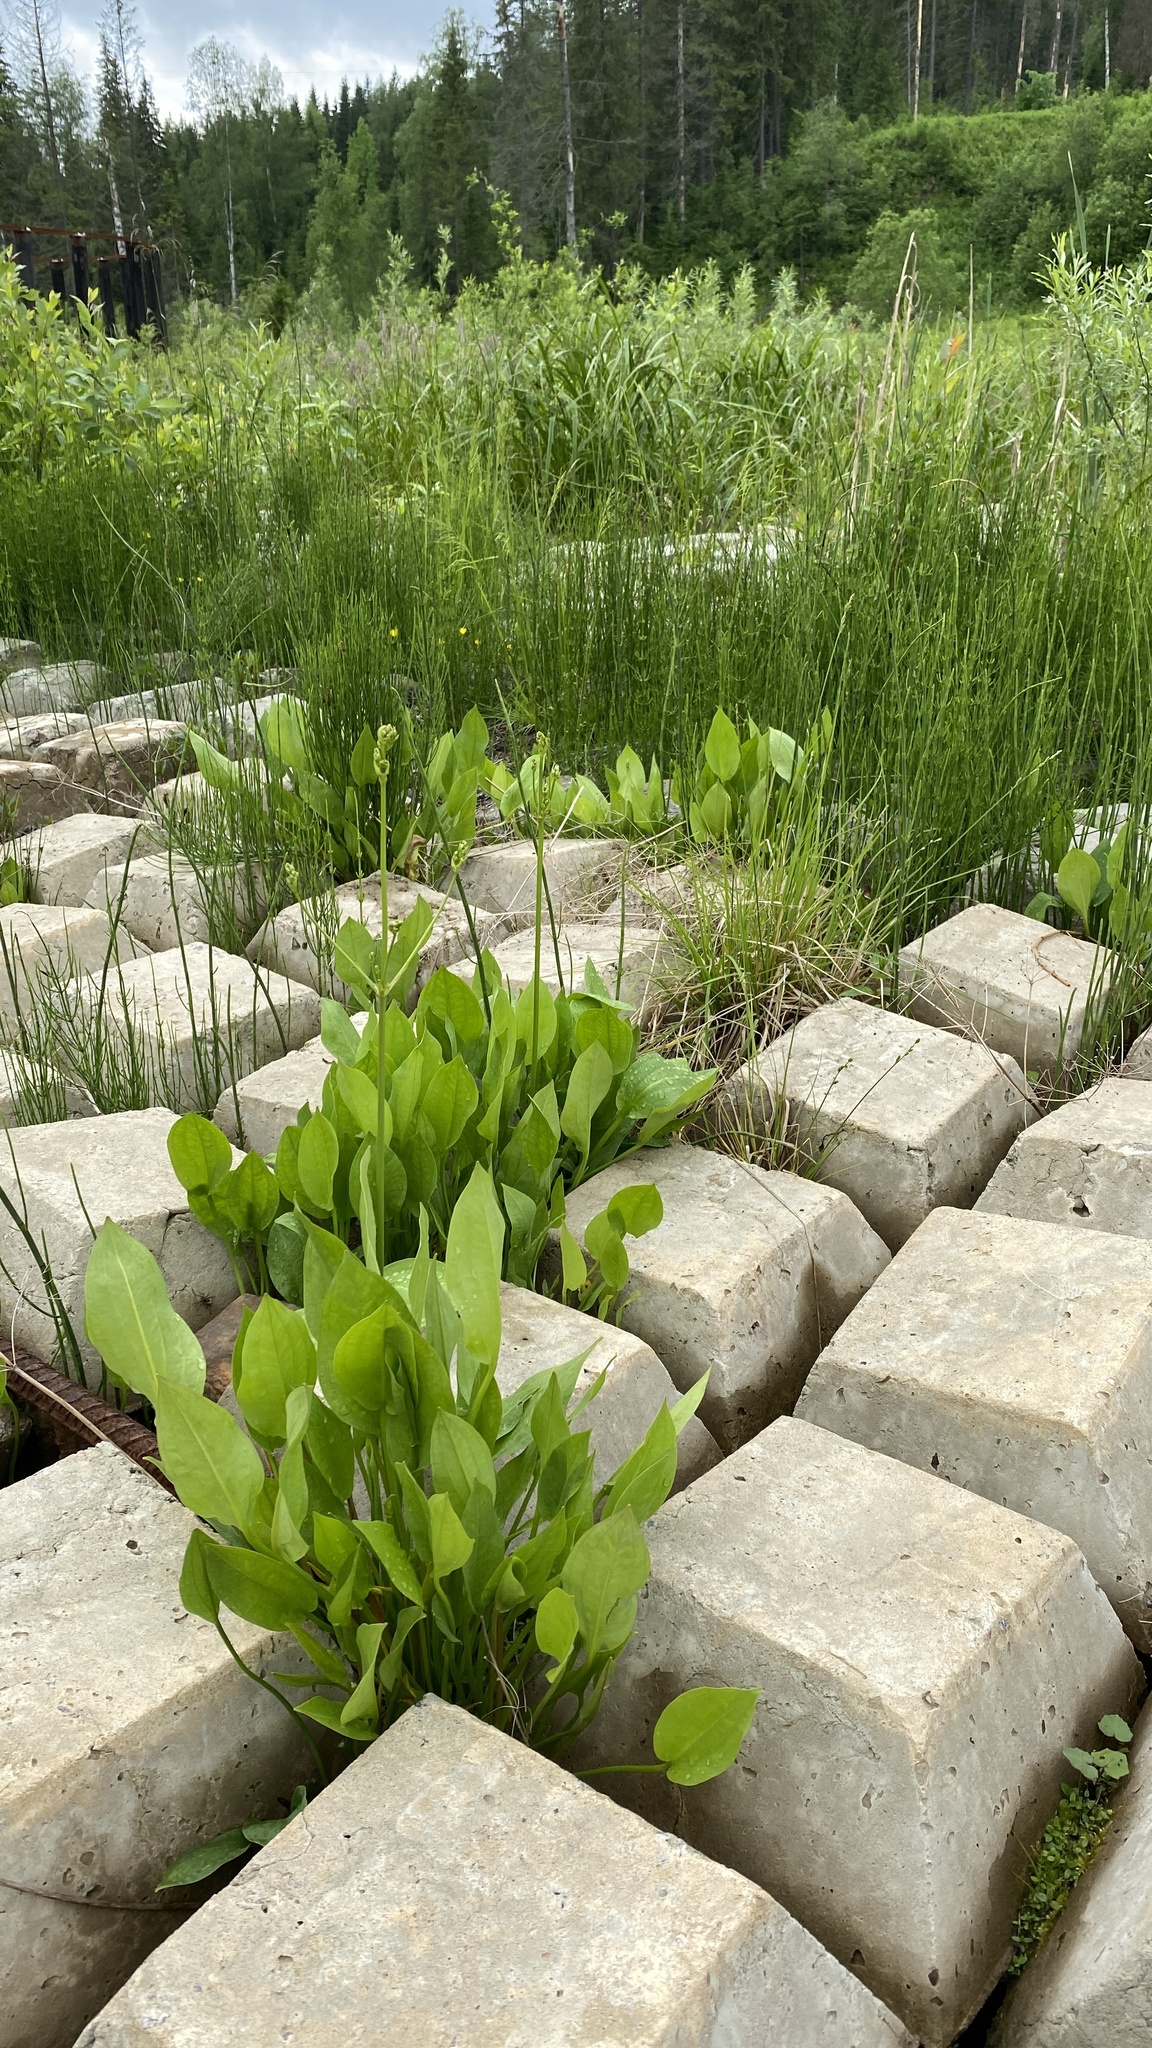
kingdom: Plantae
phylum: Tracheophyta
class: Liliopsida
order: Alismatales
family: Alismataceae
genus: Alisma
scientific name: Alisma plantago-aquatica
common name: Water-plantain
